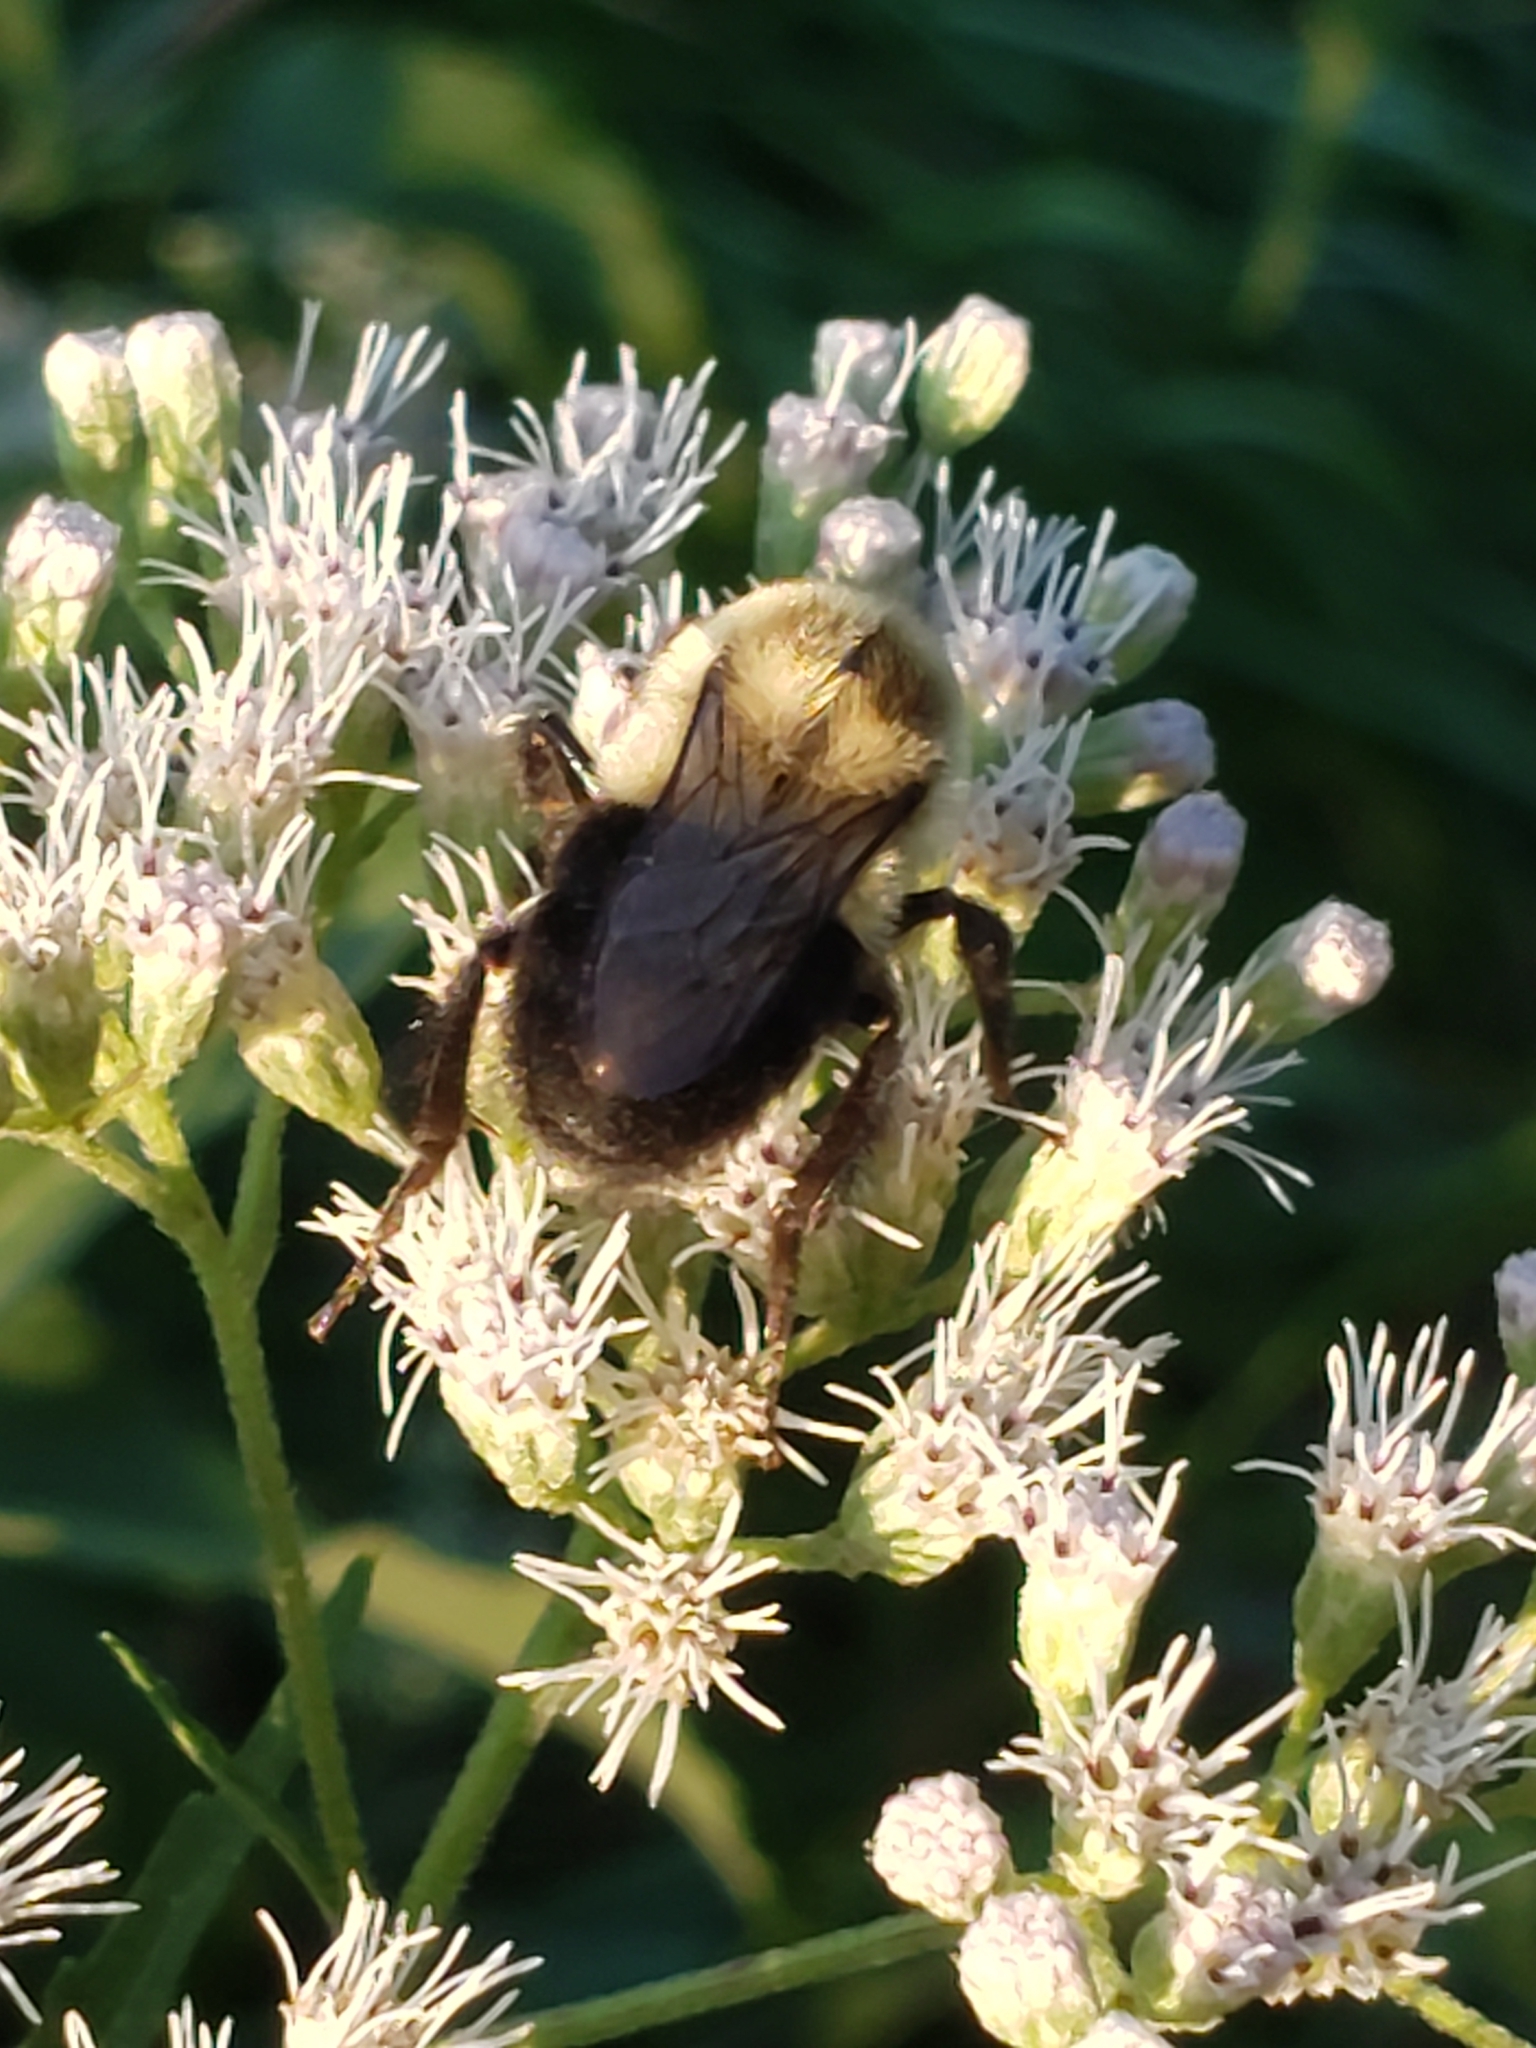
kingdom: Animalia
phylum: Arthropoda
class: Insecta
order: Hymenoptera
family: Apidae
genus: Bombus
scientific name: Bombus impatiens
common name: Common eastern bumble bee
